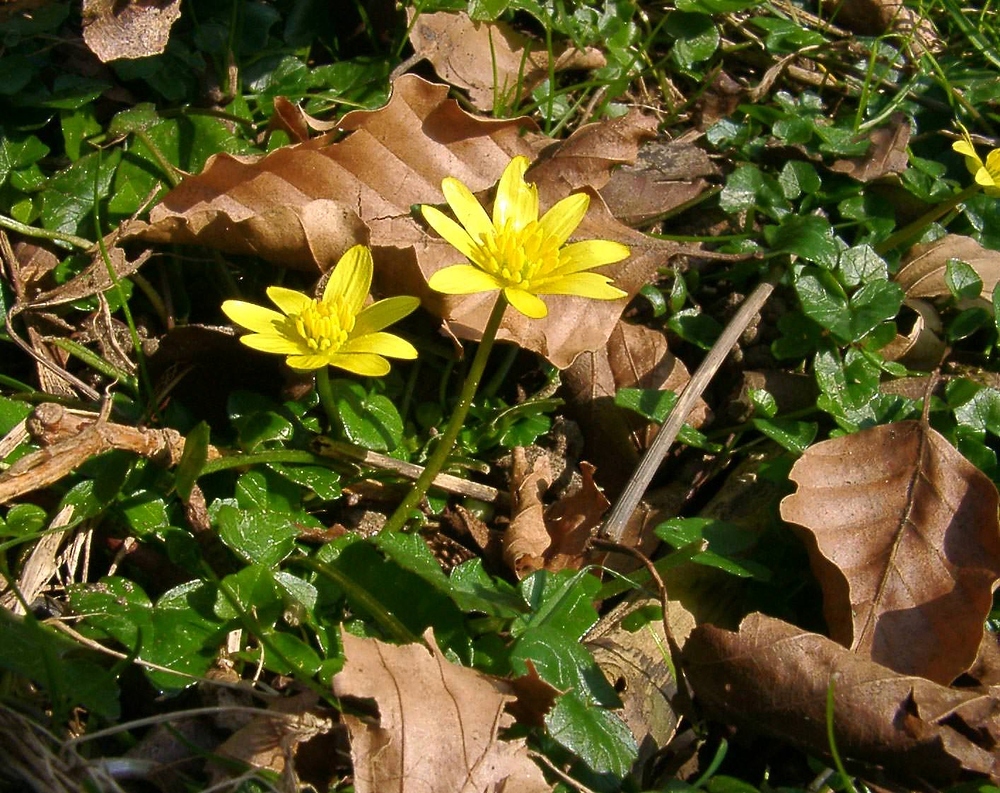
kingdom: Plantae
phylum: Tracheophyta
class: Magnoliopsida
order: Ranunculales
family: Ranunculaceae
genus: Ficaria
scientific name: Ficaria verna
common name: Lesser celandine
